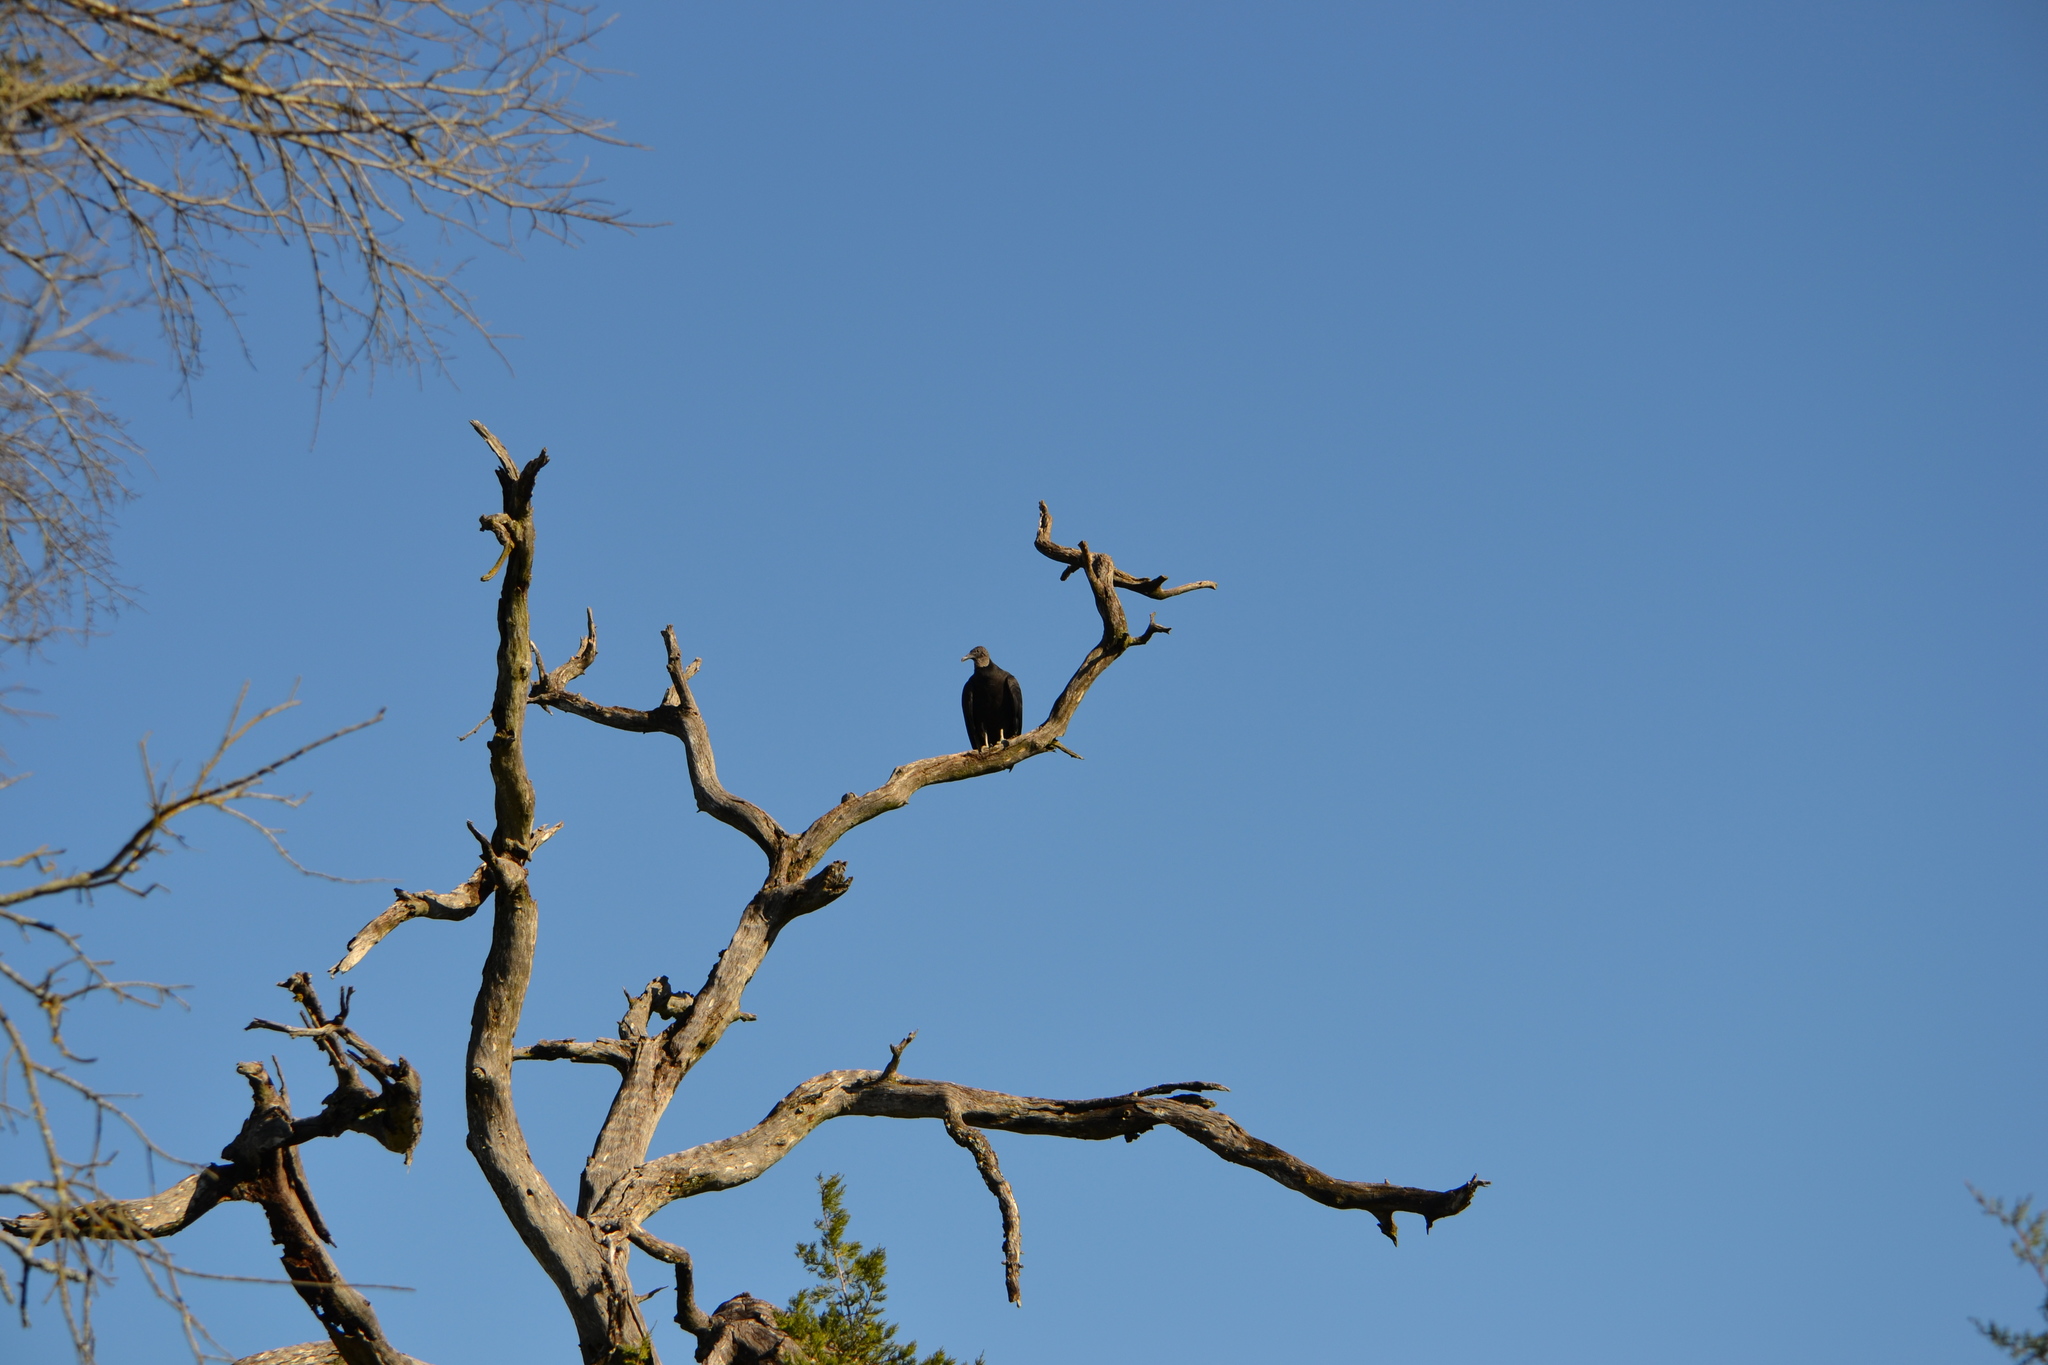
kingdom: Animalia
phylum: Chordata
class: Aves
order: Accipitriformes
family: Cathartidae
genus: Coragyps
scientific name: Coragyps atratus
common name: Black vulture
